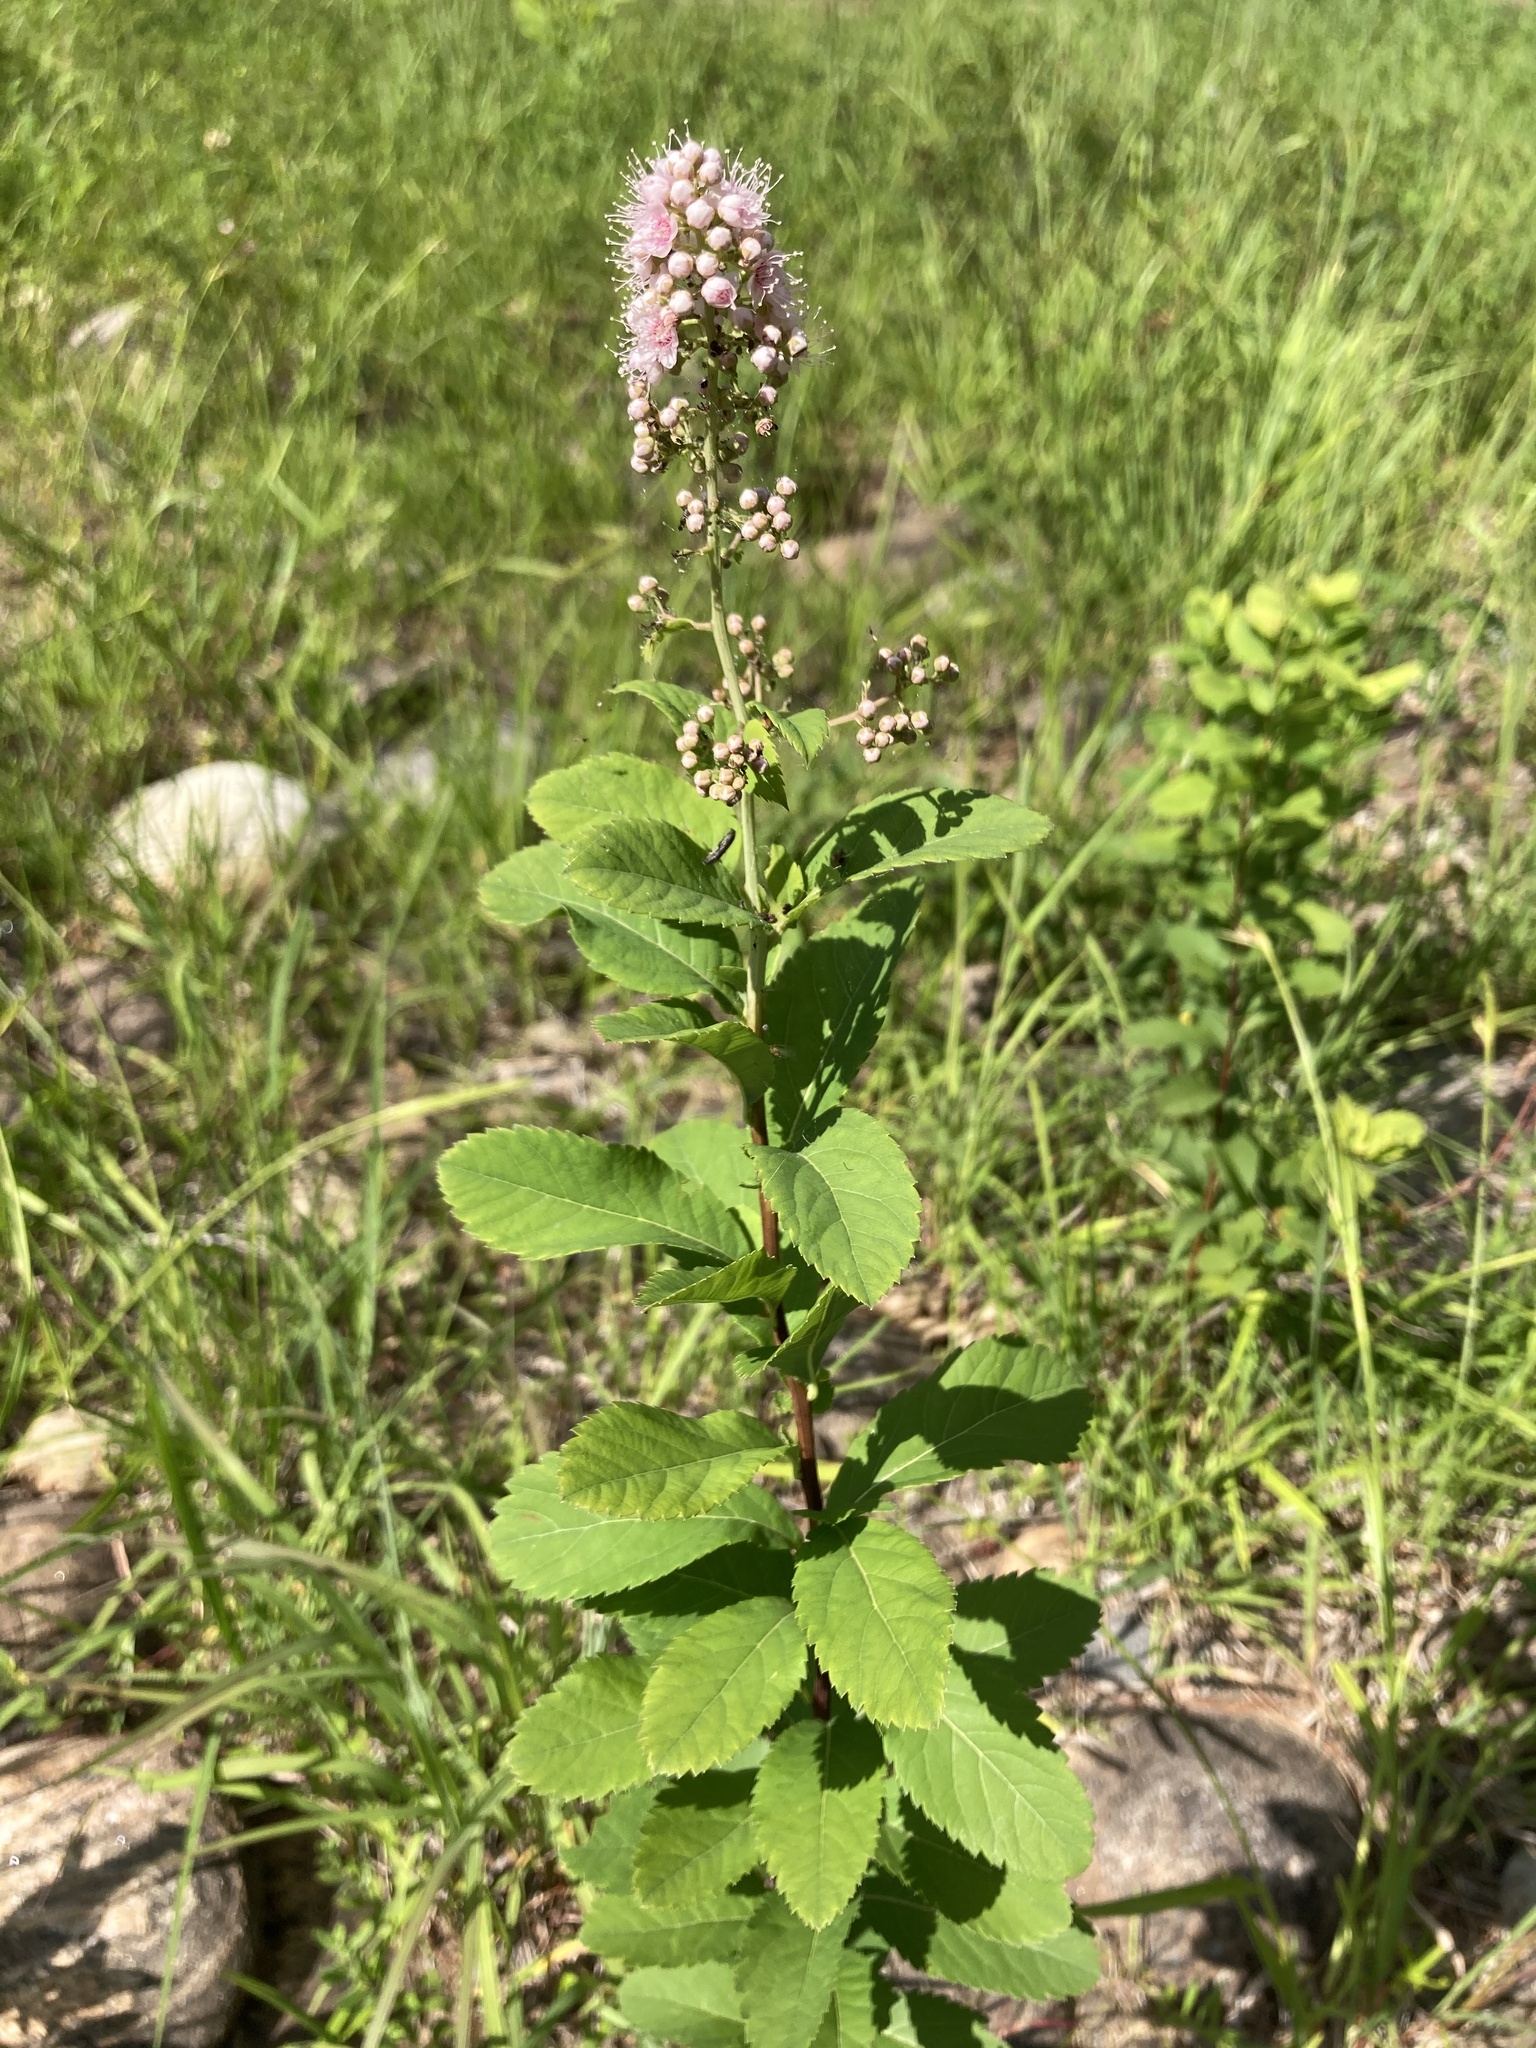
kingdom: Plantae
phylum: Tracheophyta
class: Magnoliopsida
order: Rosales
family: Rosaceae
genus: Spiraea
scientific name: Spiraea alba
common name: Pale bridewort
